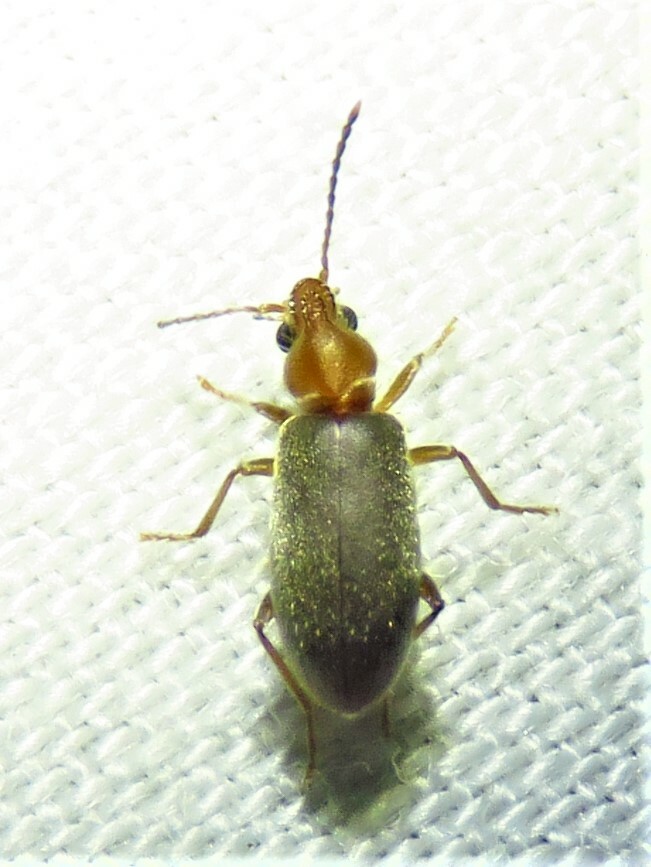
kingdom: Animalia
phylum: Arthropoda
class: Insecta
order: Coleoptera
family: Anthicidae
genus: Notoxus
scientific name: Notoxus murinipennis
